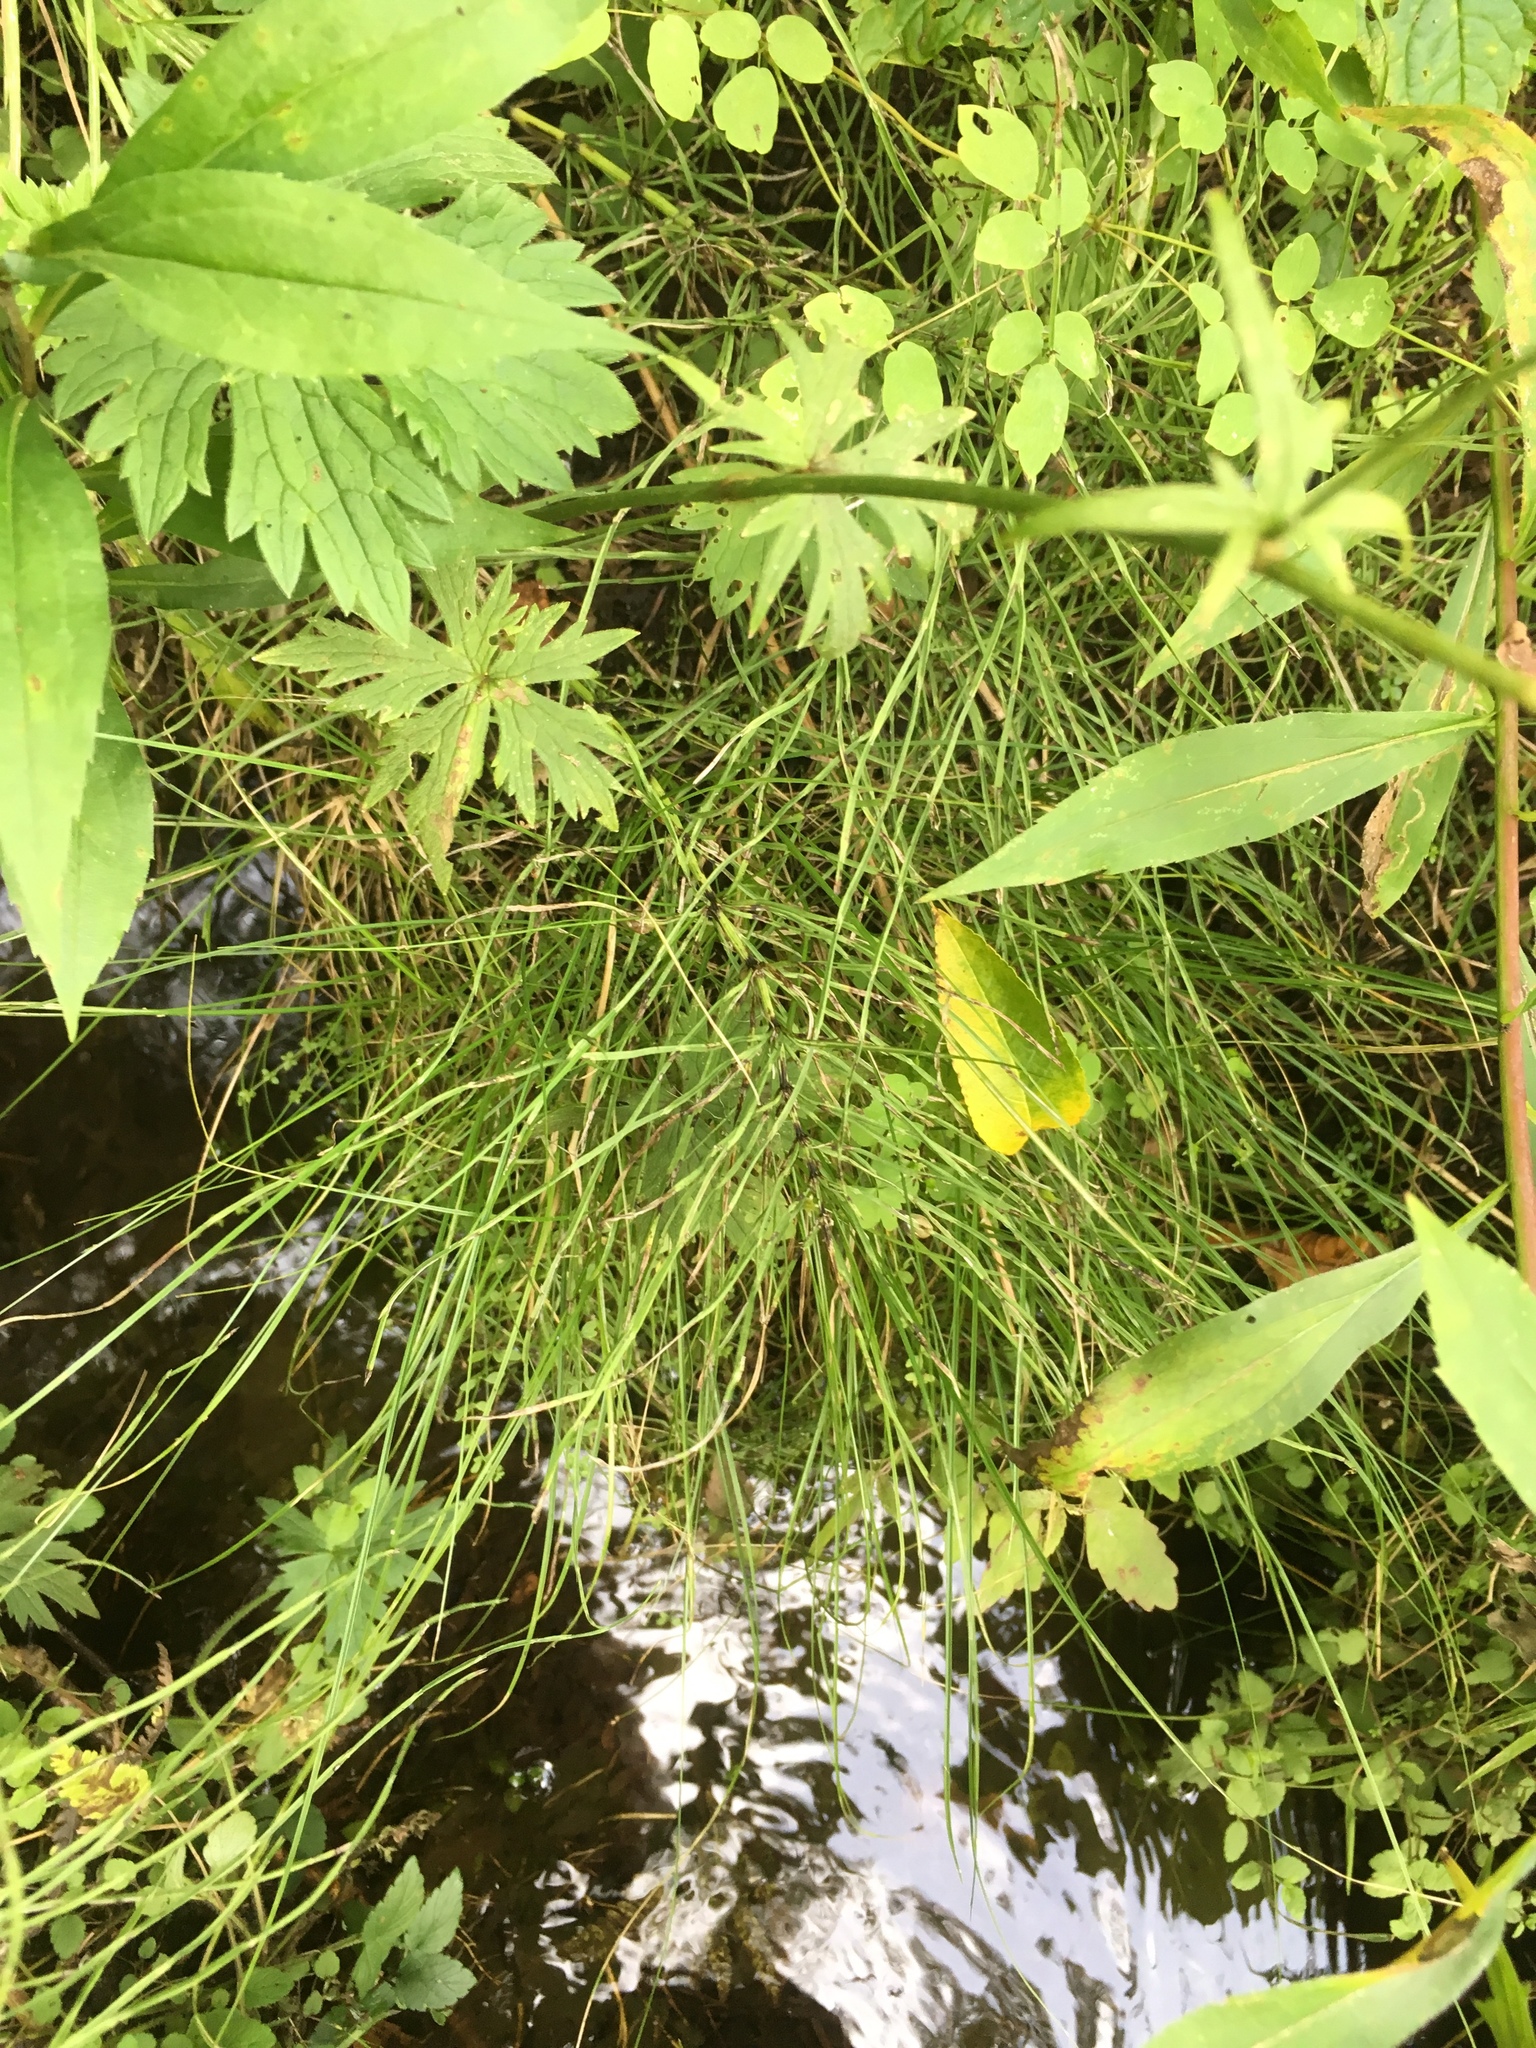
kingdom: Plantae
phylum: Tracheophyta
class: Polypodiopsida
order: Equisetales
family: Equisetaceae
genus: Equisetum
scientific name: Equisetum arvense
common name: Field horsetail
